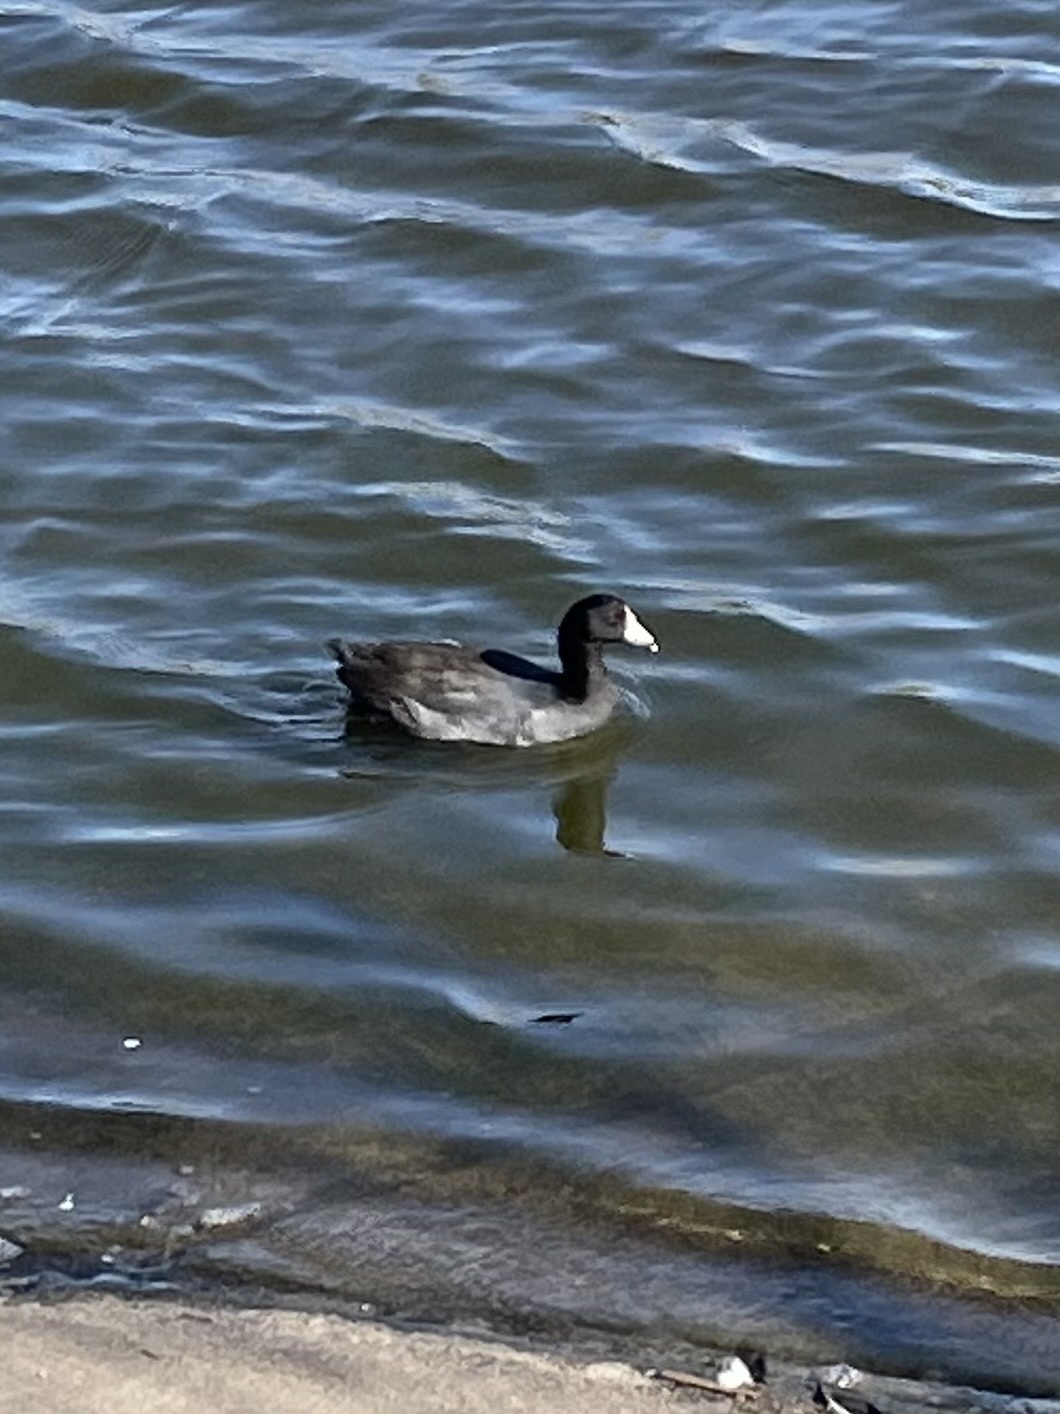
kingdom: Animalia
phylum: Chordata
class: Aves
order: Gruiformes
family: Rallidae
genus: Fulica
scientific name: Fulica americana
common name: American coot
